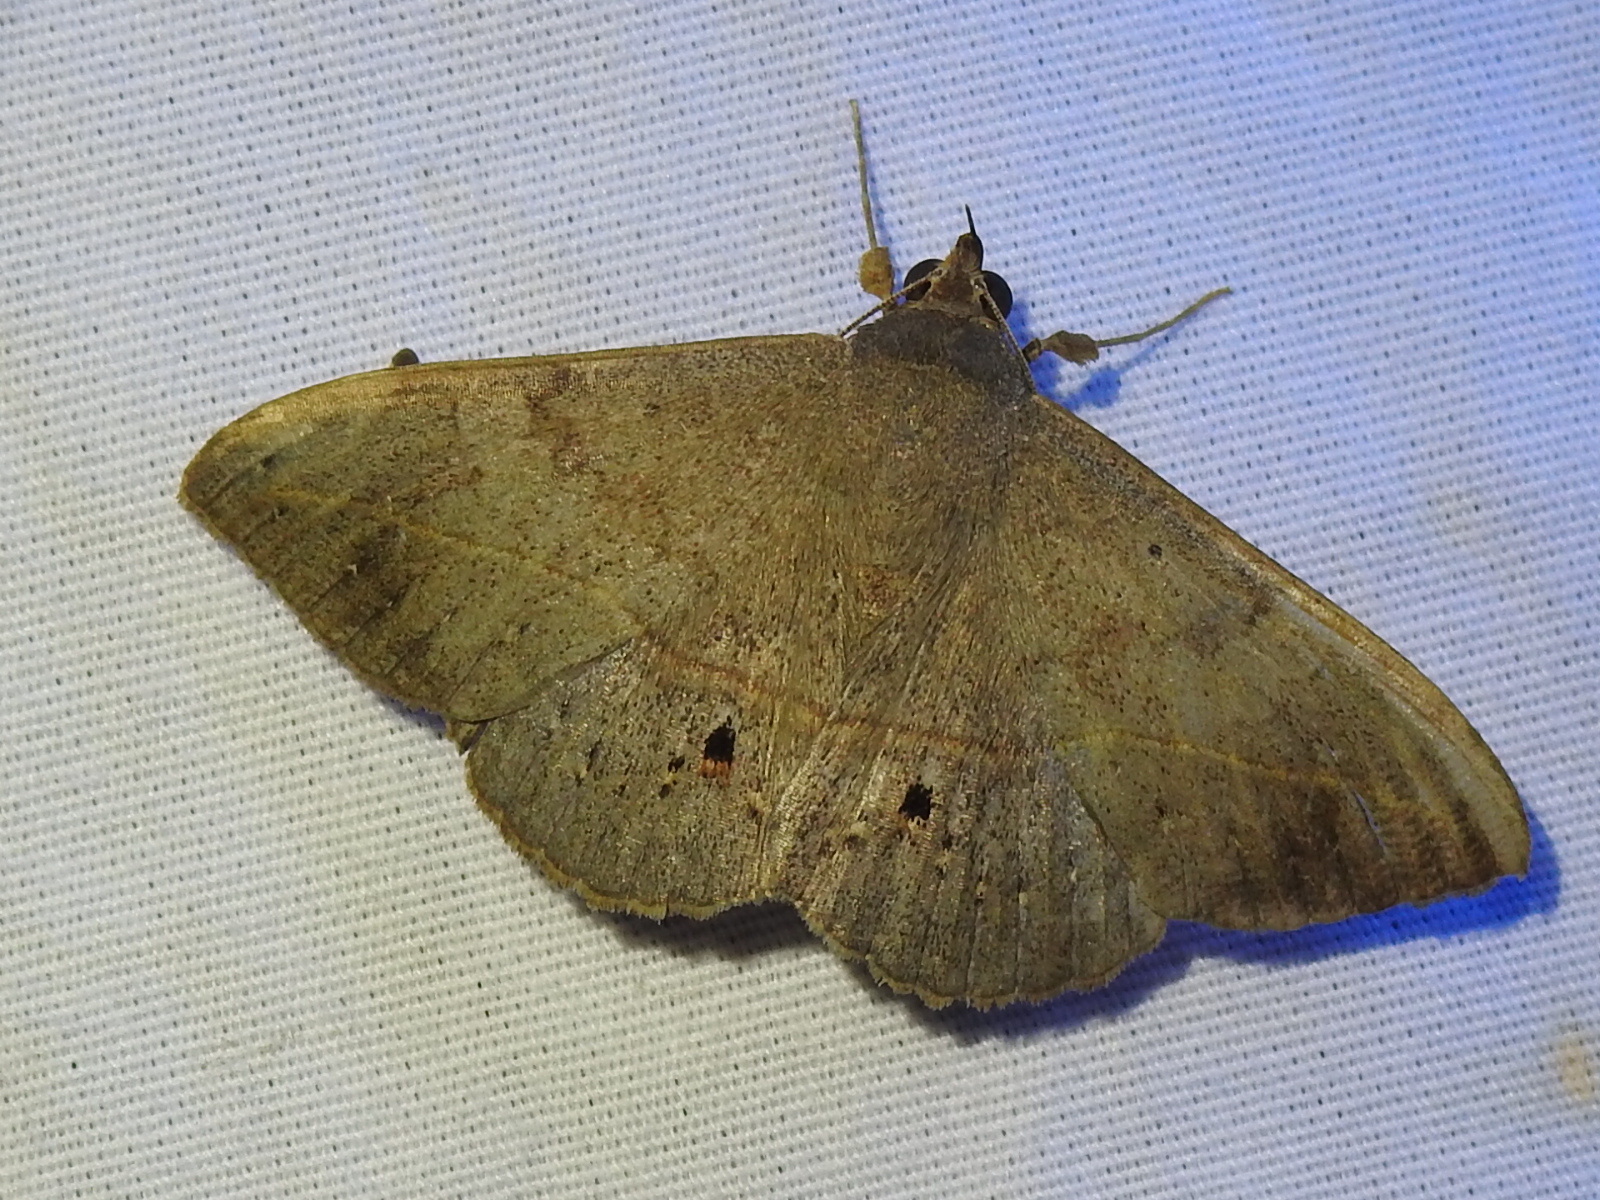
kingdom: Animalia
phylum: Arthropoda
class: Insecta
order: Lepidoptera
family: Erebidae
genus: Anticarsia
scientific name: Anticarsia gemmatalis
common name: Cutworm moth
